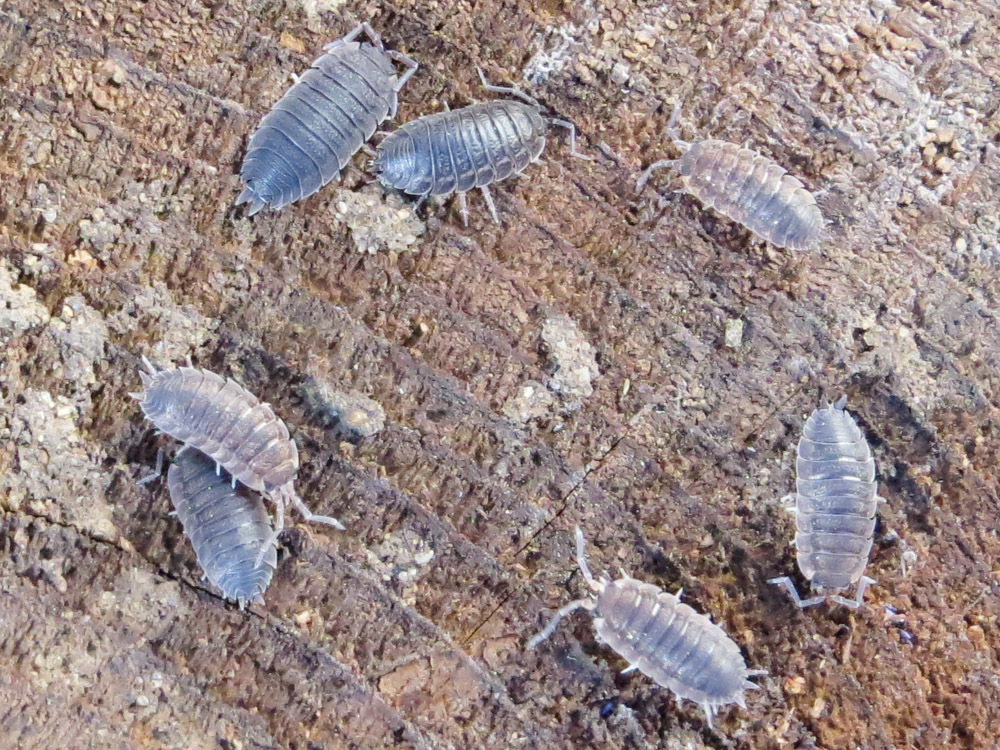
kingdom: Animalia
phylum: Arthropoda
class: Malacostraca
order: Isopoda
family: Porcellionidae
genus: Porcellio
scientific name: Porcellio scaber
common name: Common rough woodlouse
